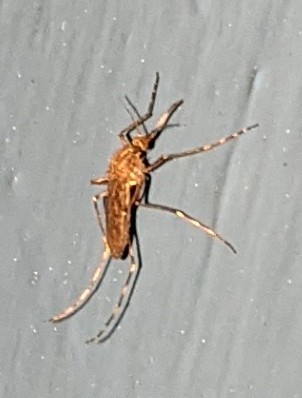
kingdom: Animalia
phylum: Arthropoda
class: Insecta
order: Diptera
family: Culicidae
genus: Coquillettidia
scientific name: Coquillettidia perturbans
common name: Cattail mosquito
